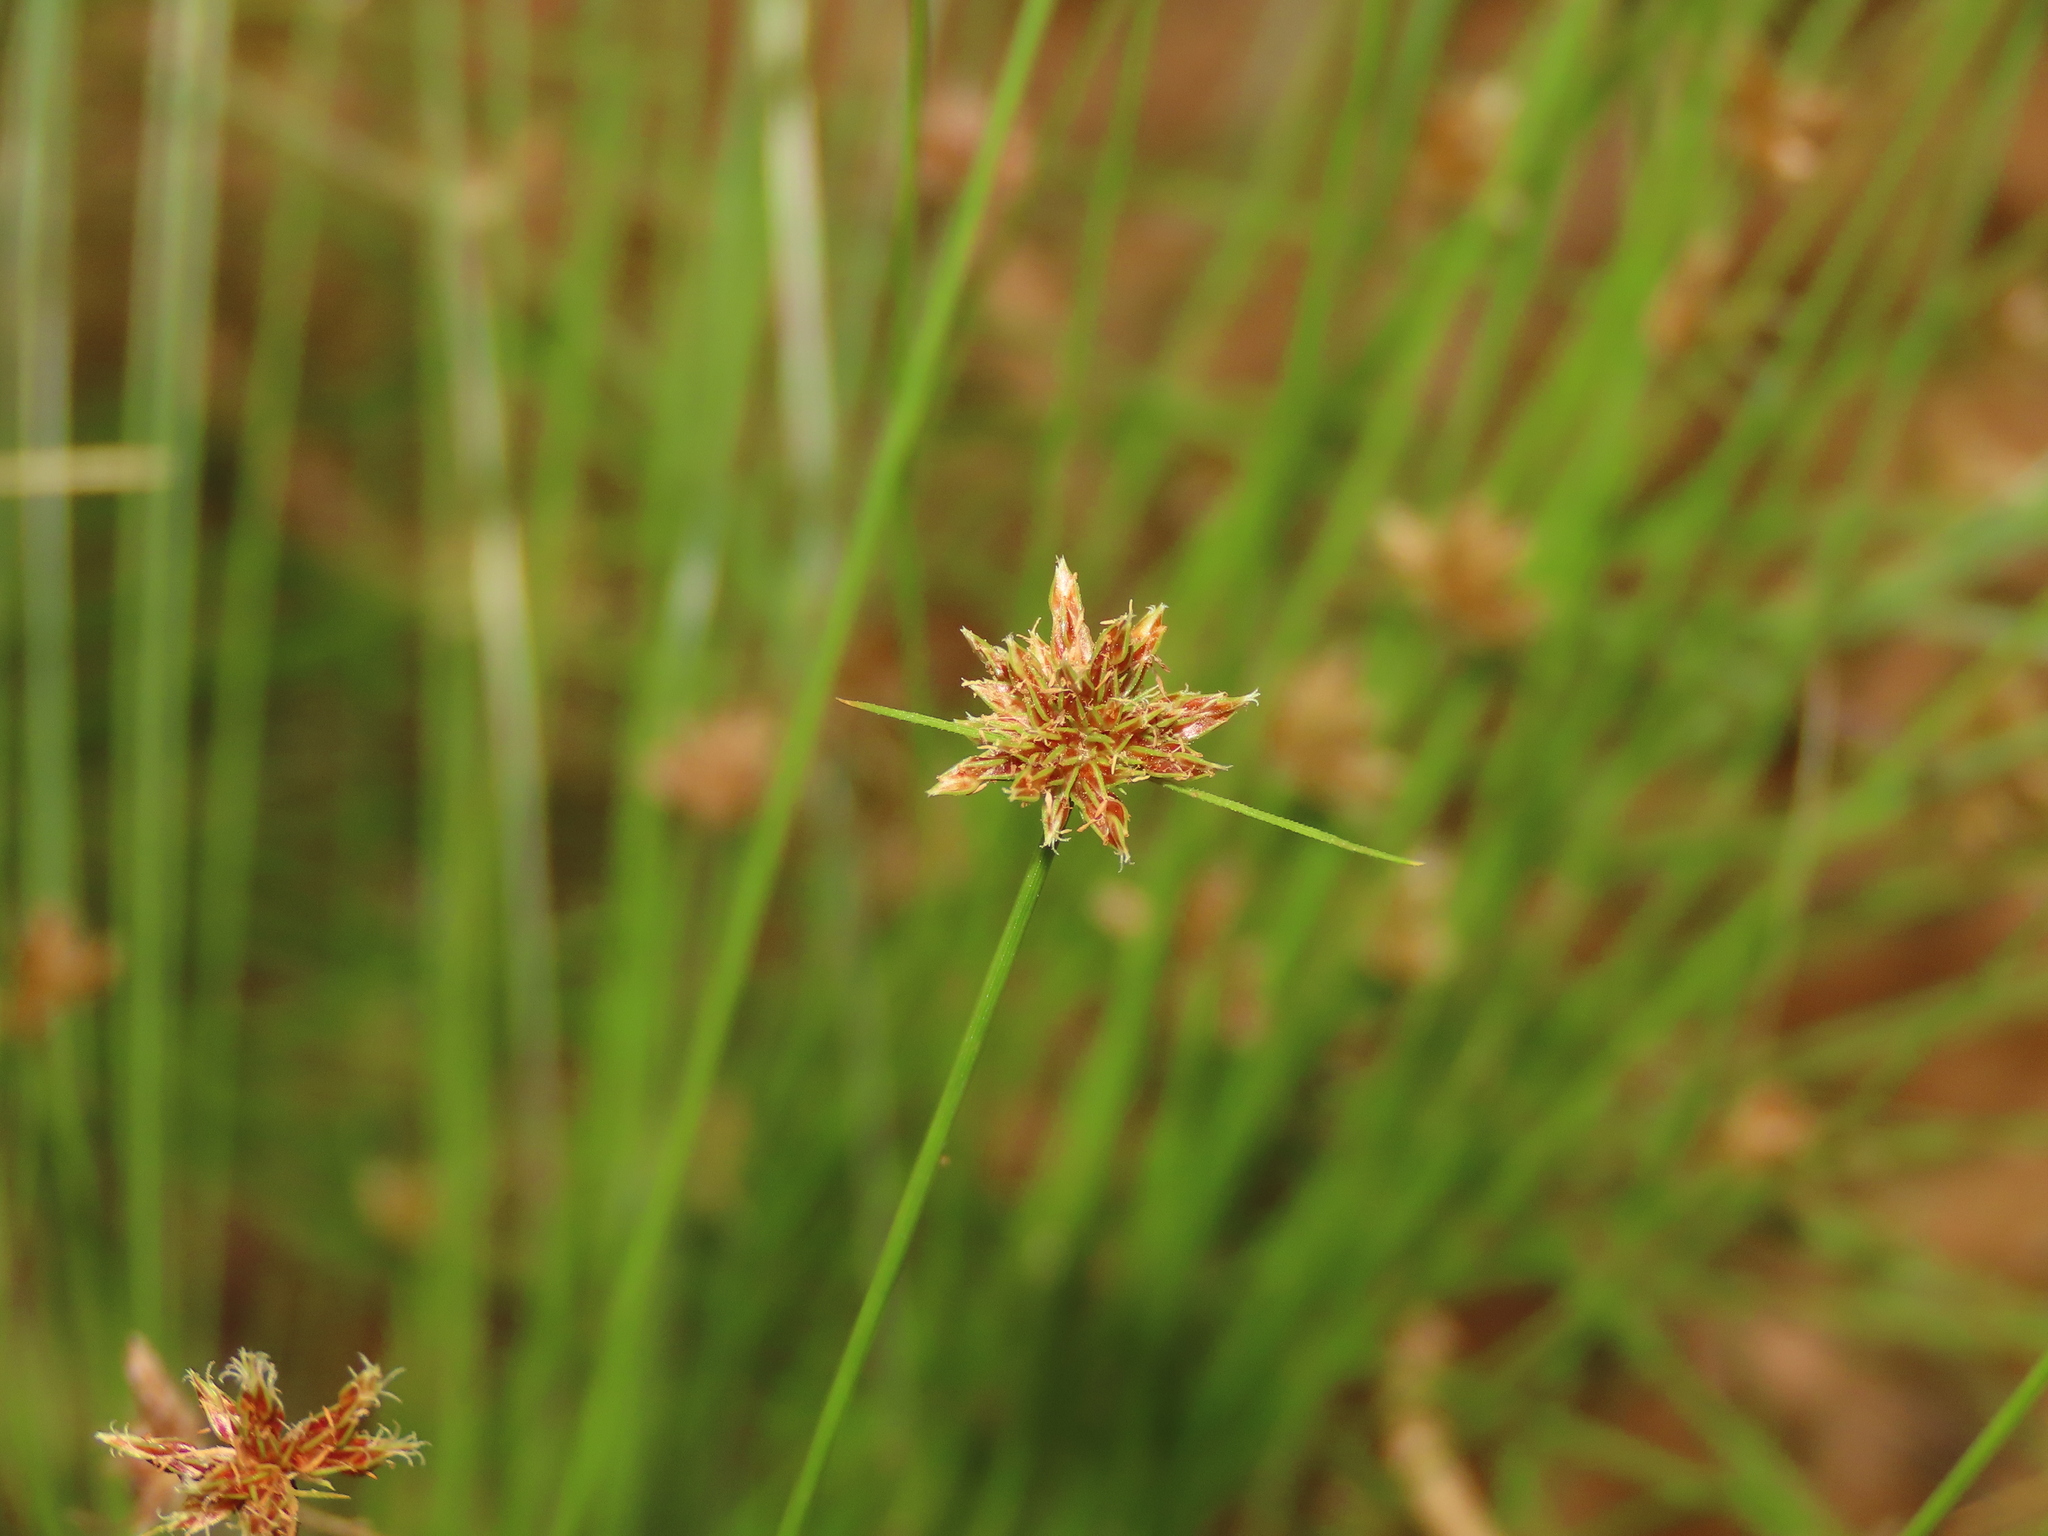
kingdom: Plantae
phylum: Tracheophyta
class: Liliopsida
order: Poales
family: Cyperaceae
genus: Bulbostylis
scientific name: Bulbostylis barbata
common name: Watergrass
